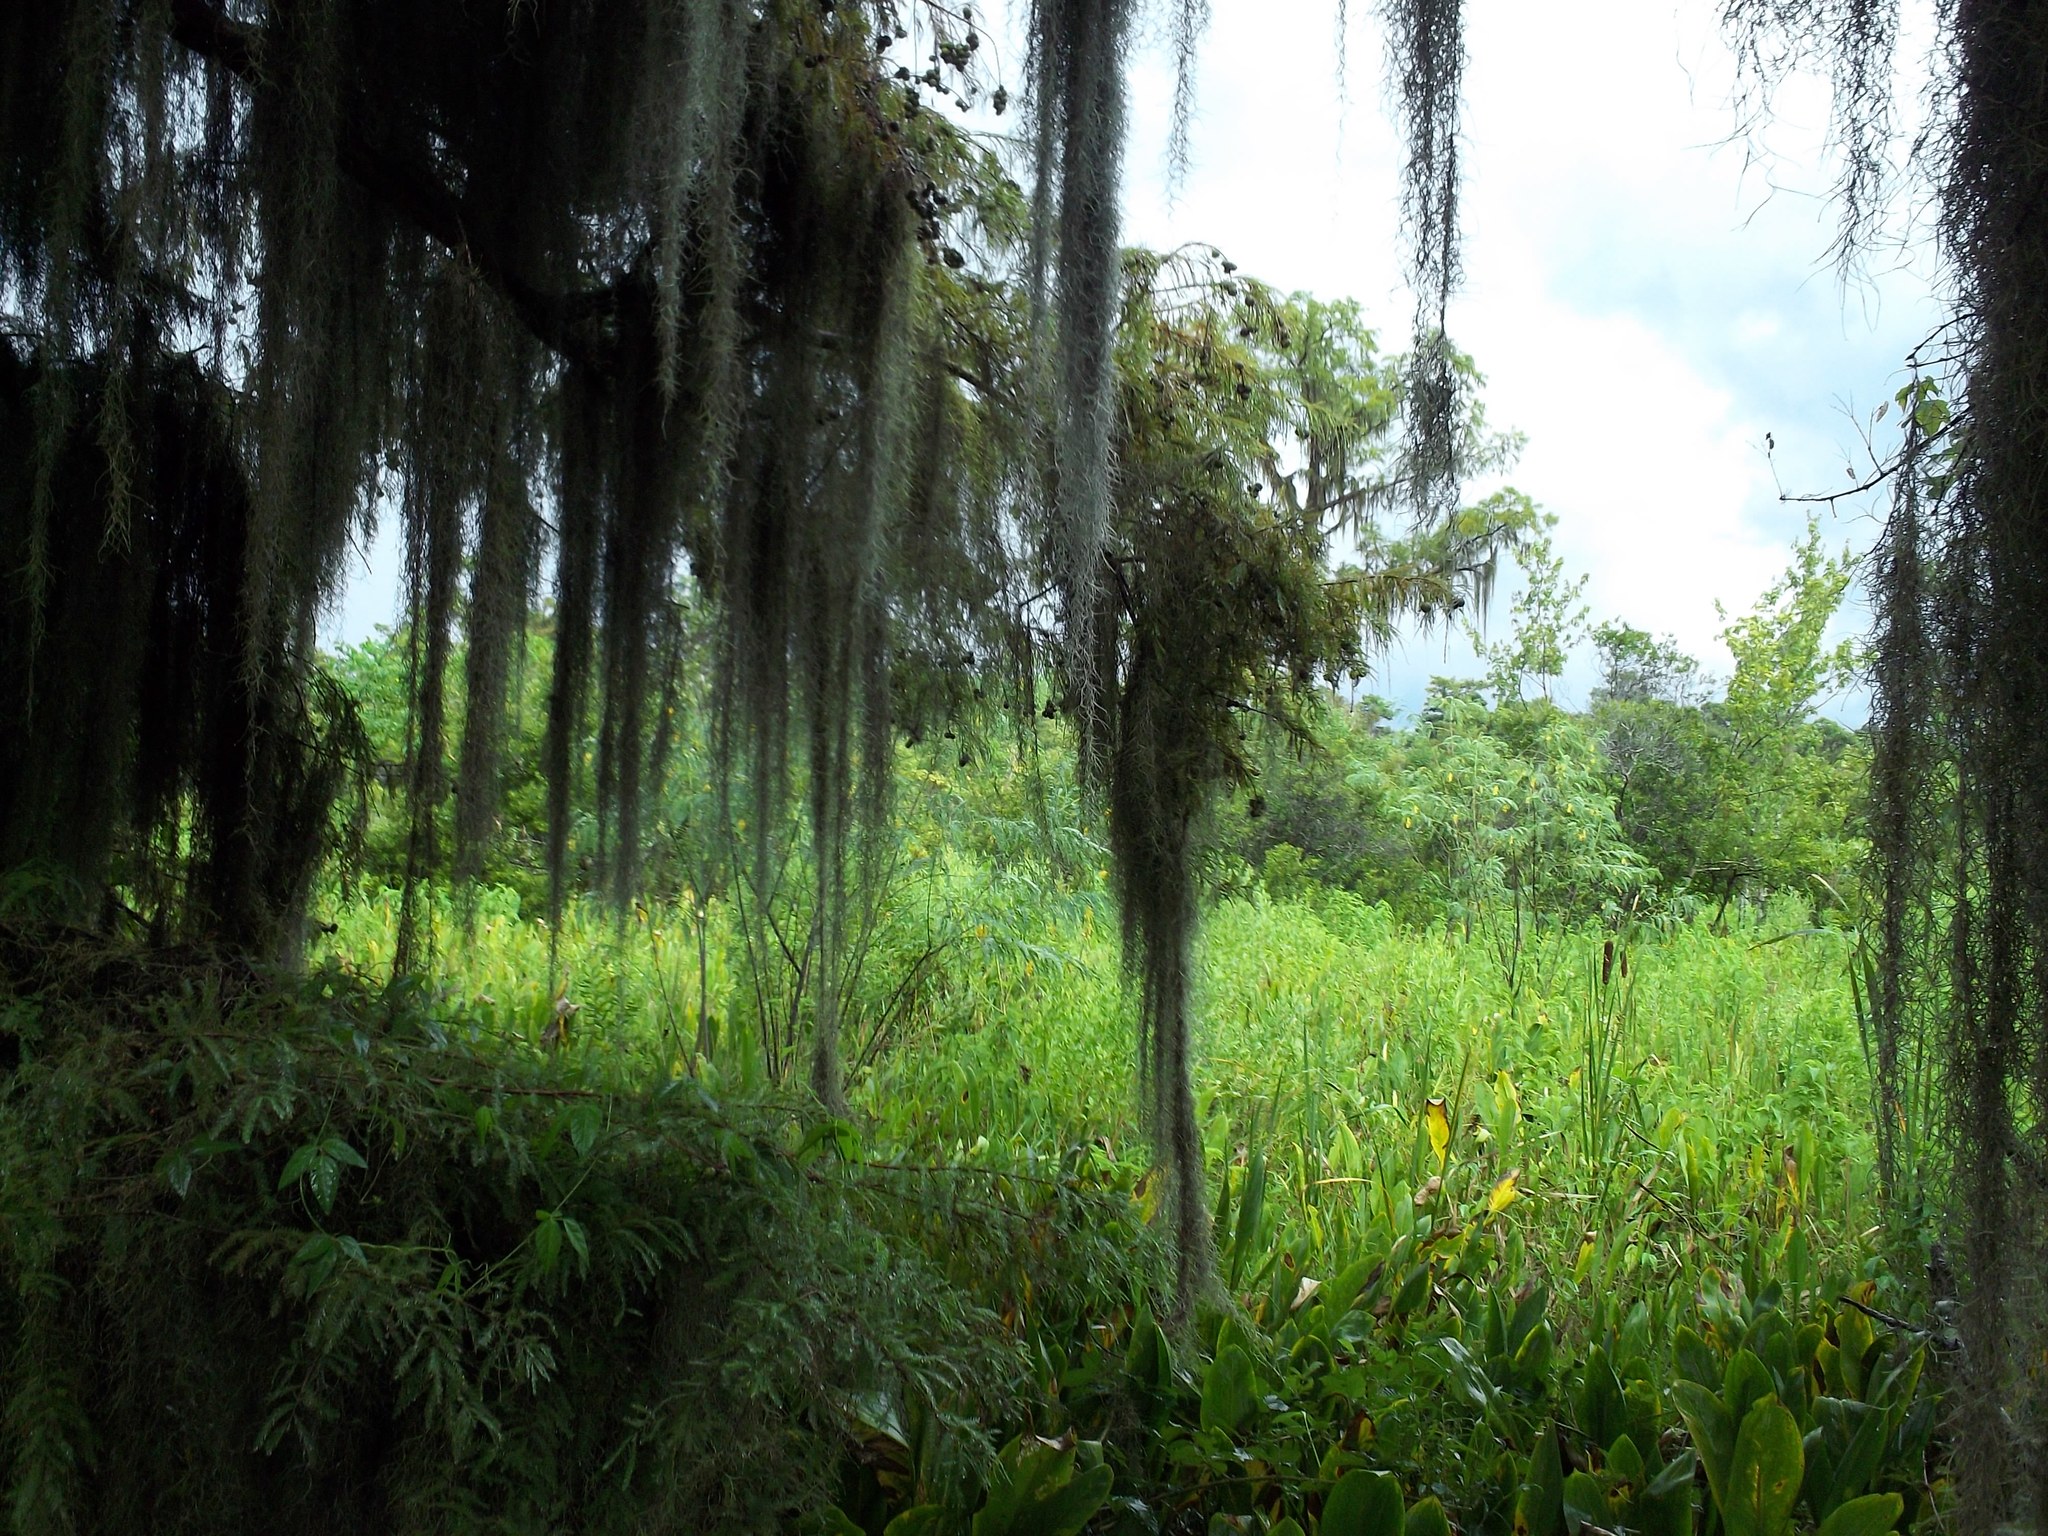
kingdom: Plantae
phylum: Tracheophyta
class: Liliopsida
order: Poales
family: Bromeliaceae
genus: Tillandsia
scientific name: Tillandsia usneoides
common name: Spanish moss
